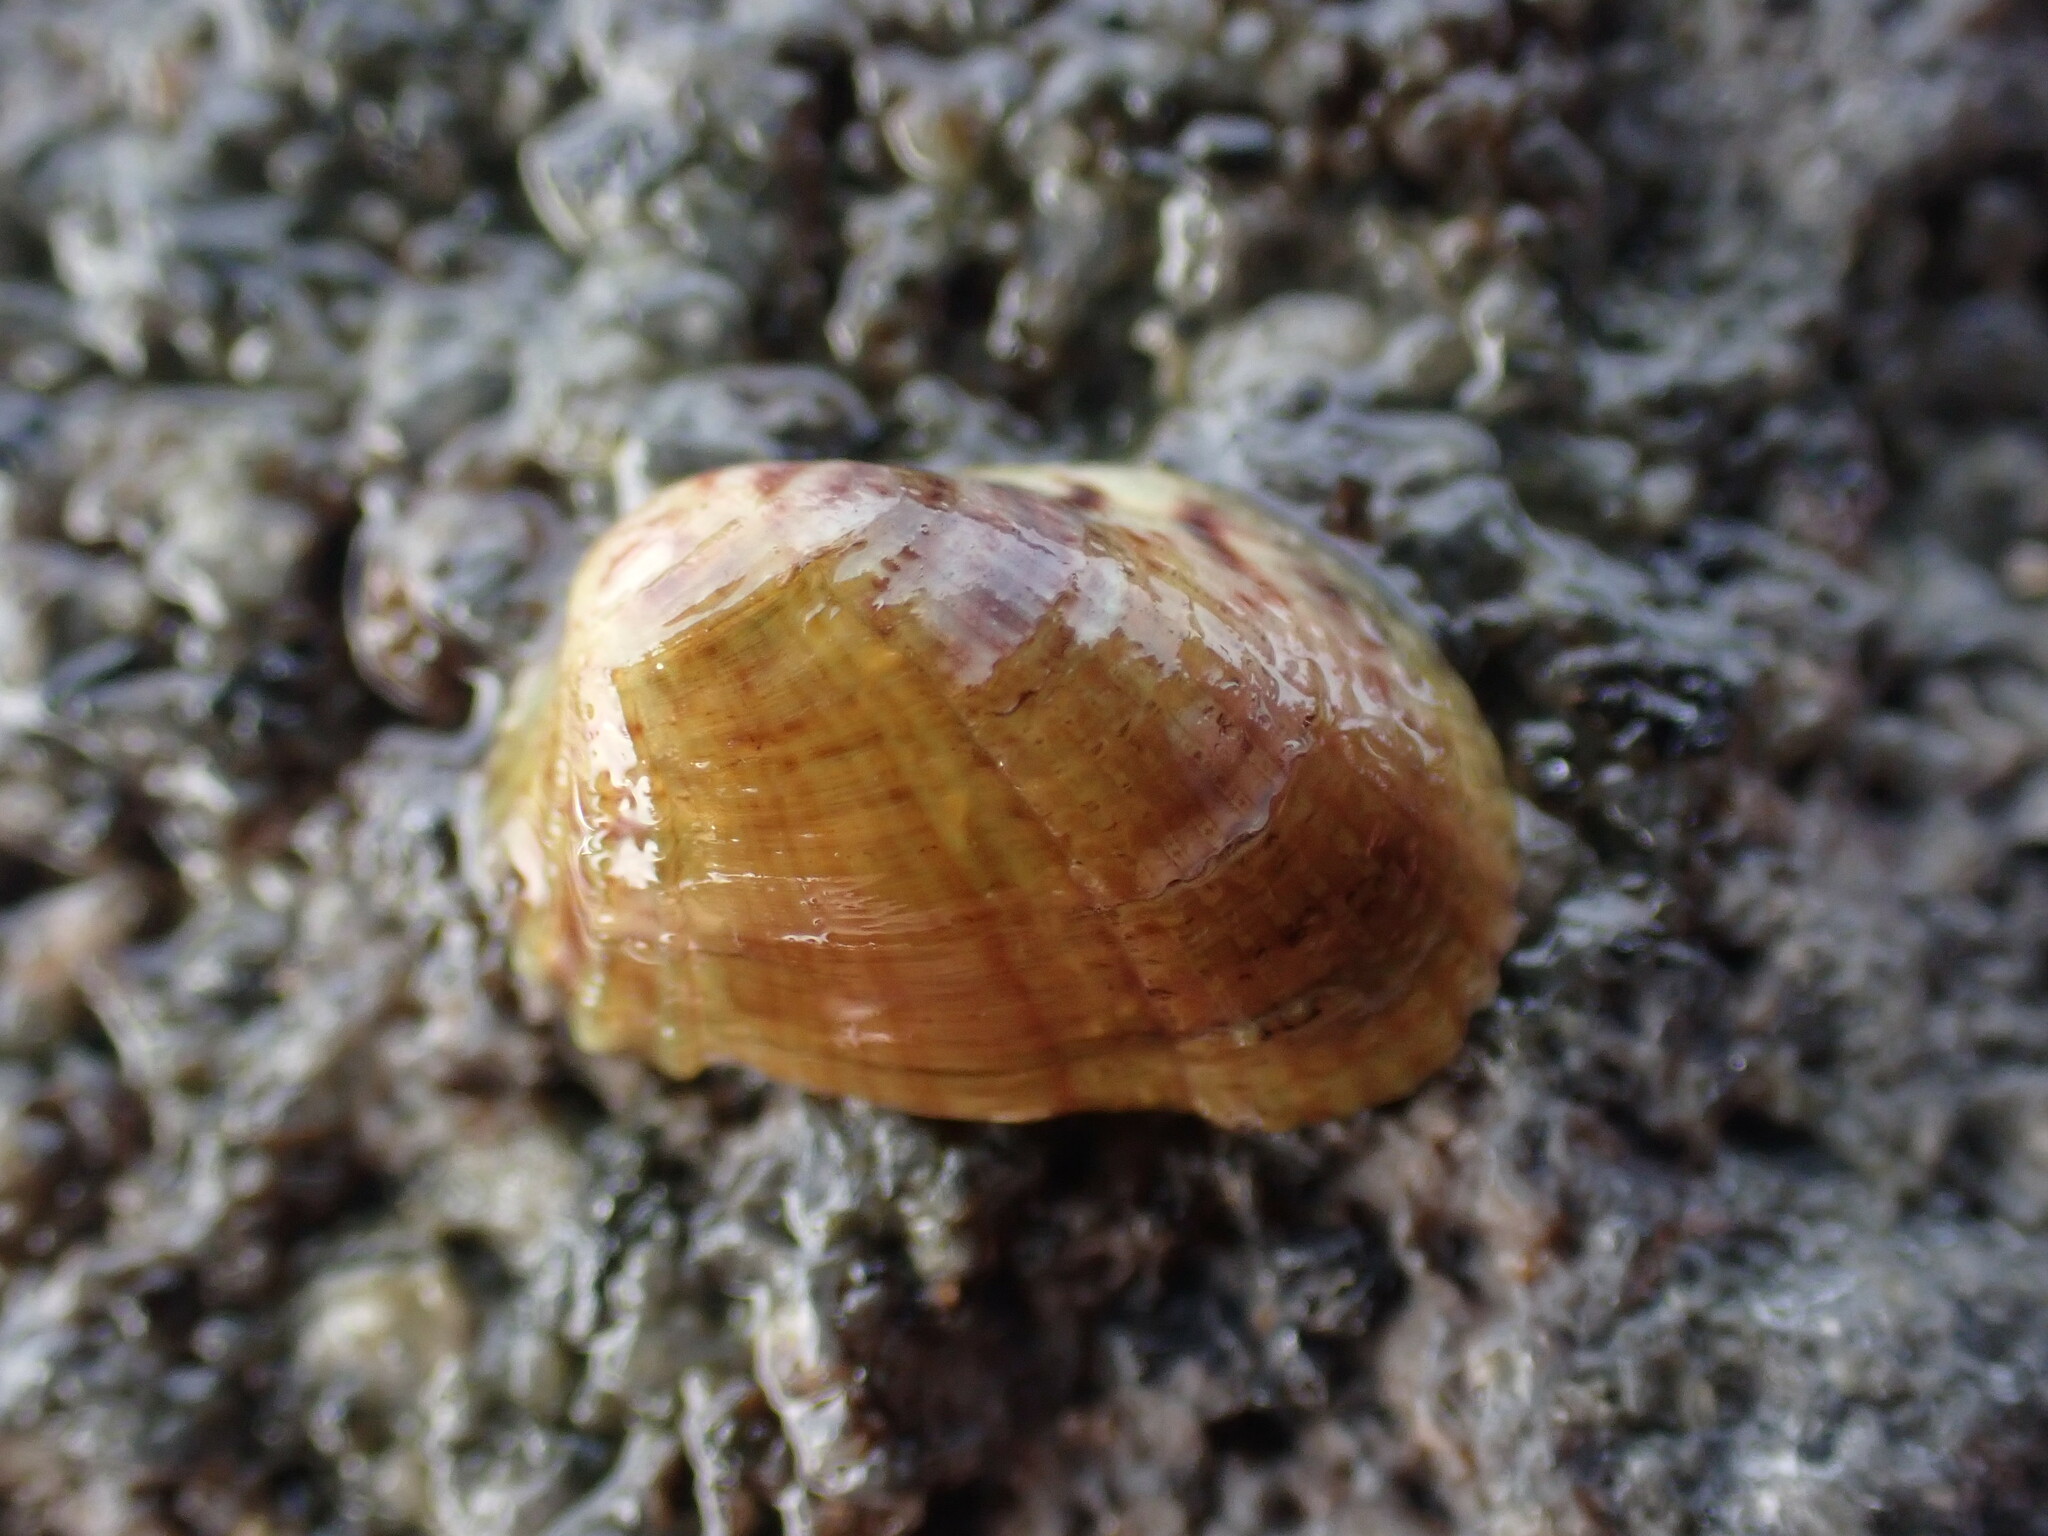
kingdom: Animalia
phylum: Mollusca
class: Bivalvia
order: Mytilida
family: Mytilidae
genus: Musculus
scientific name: Musculus impactus
